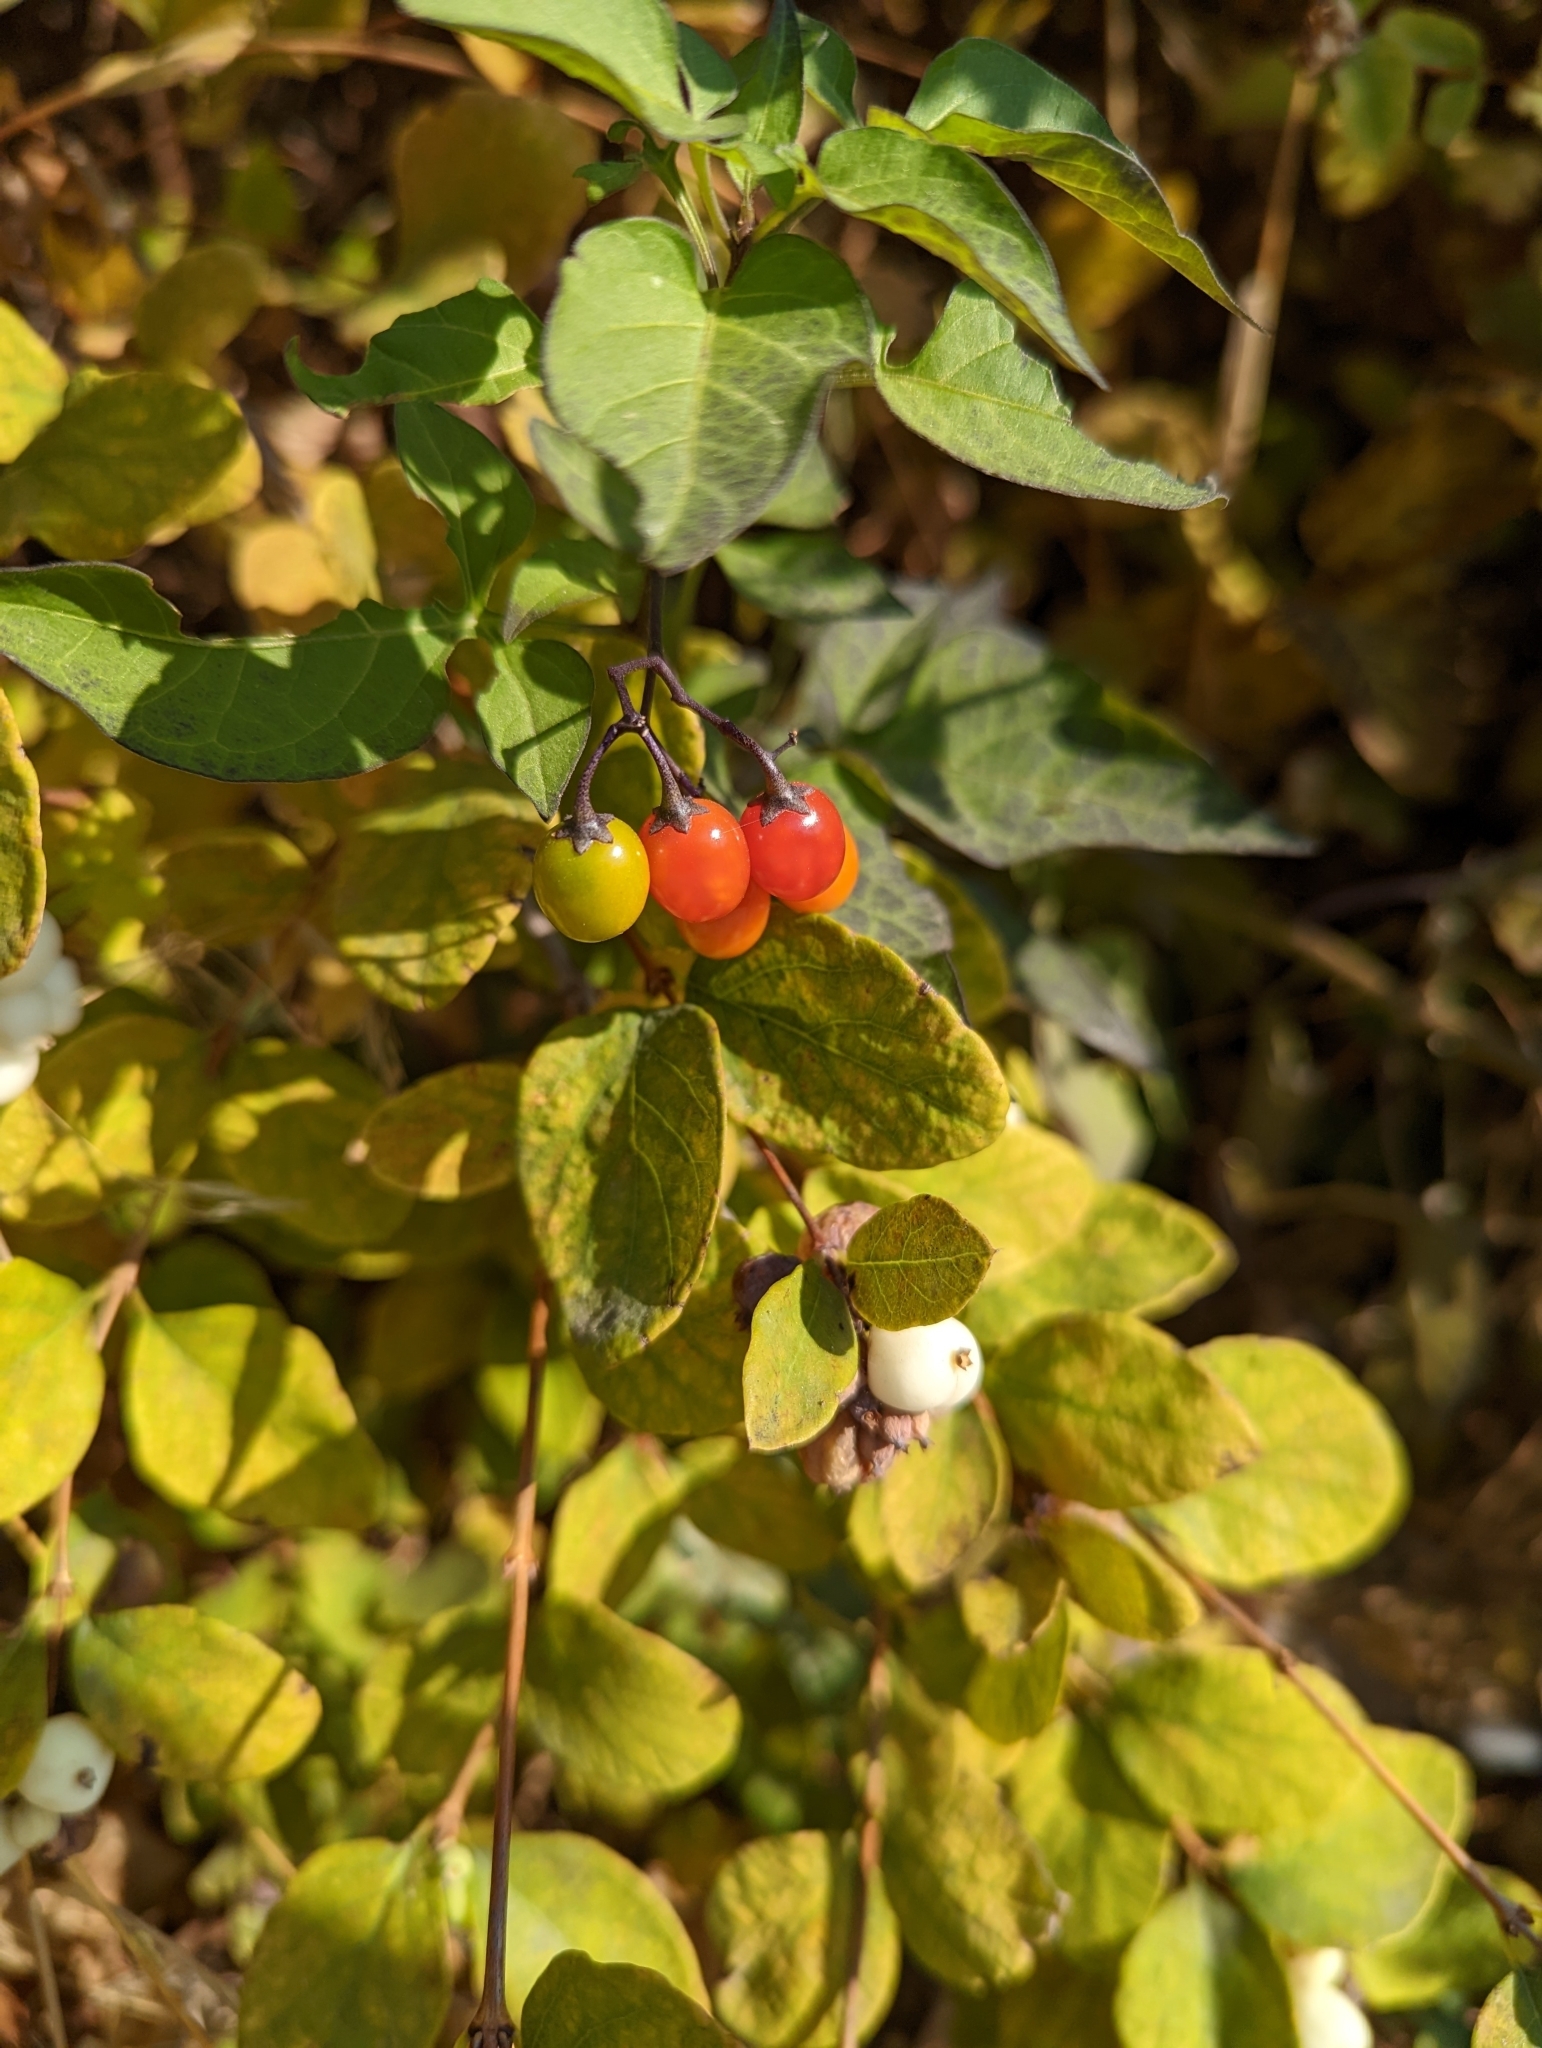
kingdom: Plantae
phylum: Tracheophyta
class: Magnoliopsida
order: Solanales
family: Solanaceae
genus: Solanum
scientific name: Solanum dulcamara
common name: Climbing nightshade
